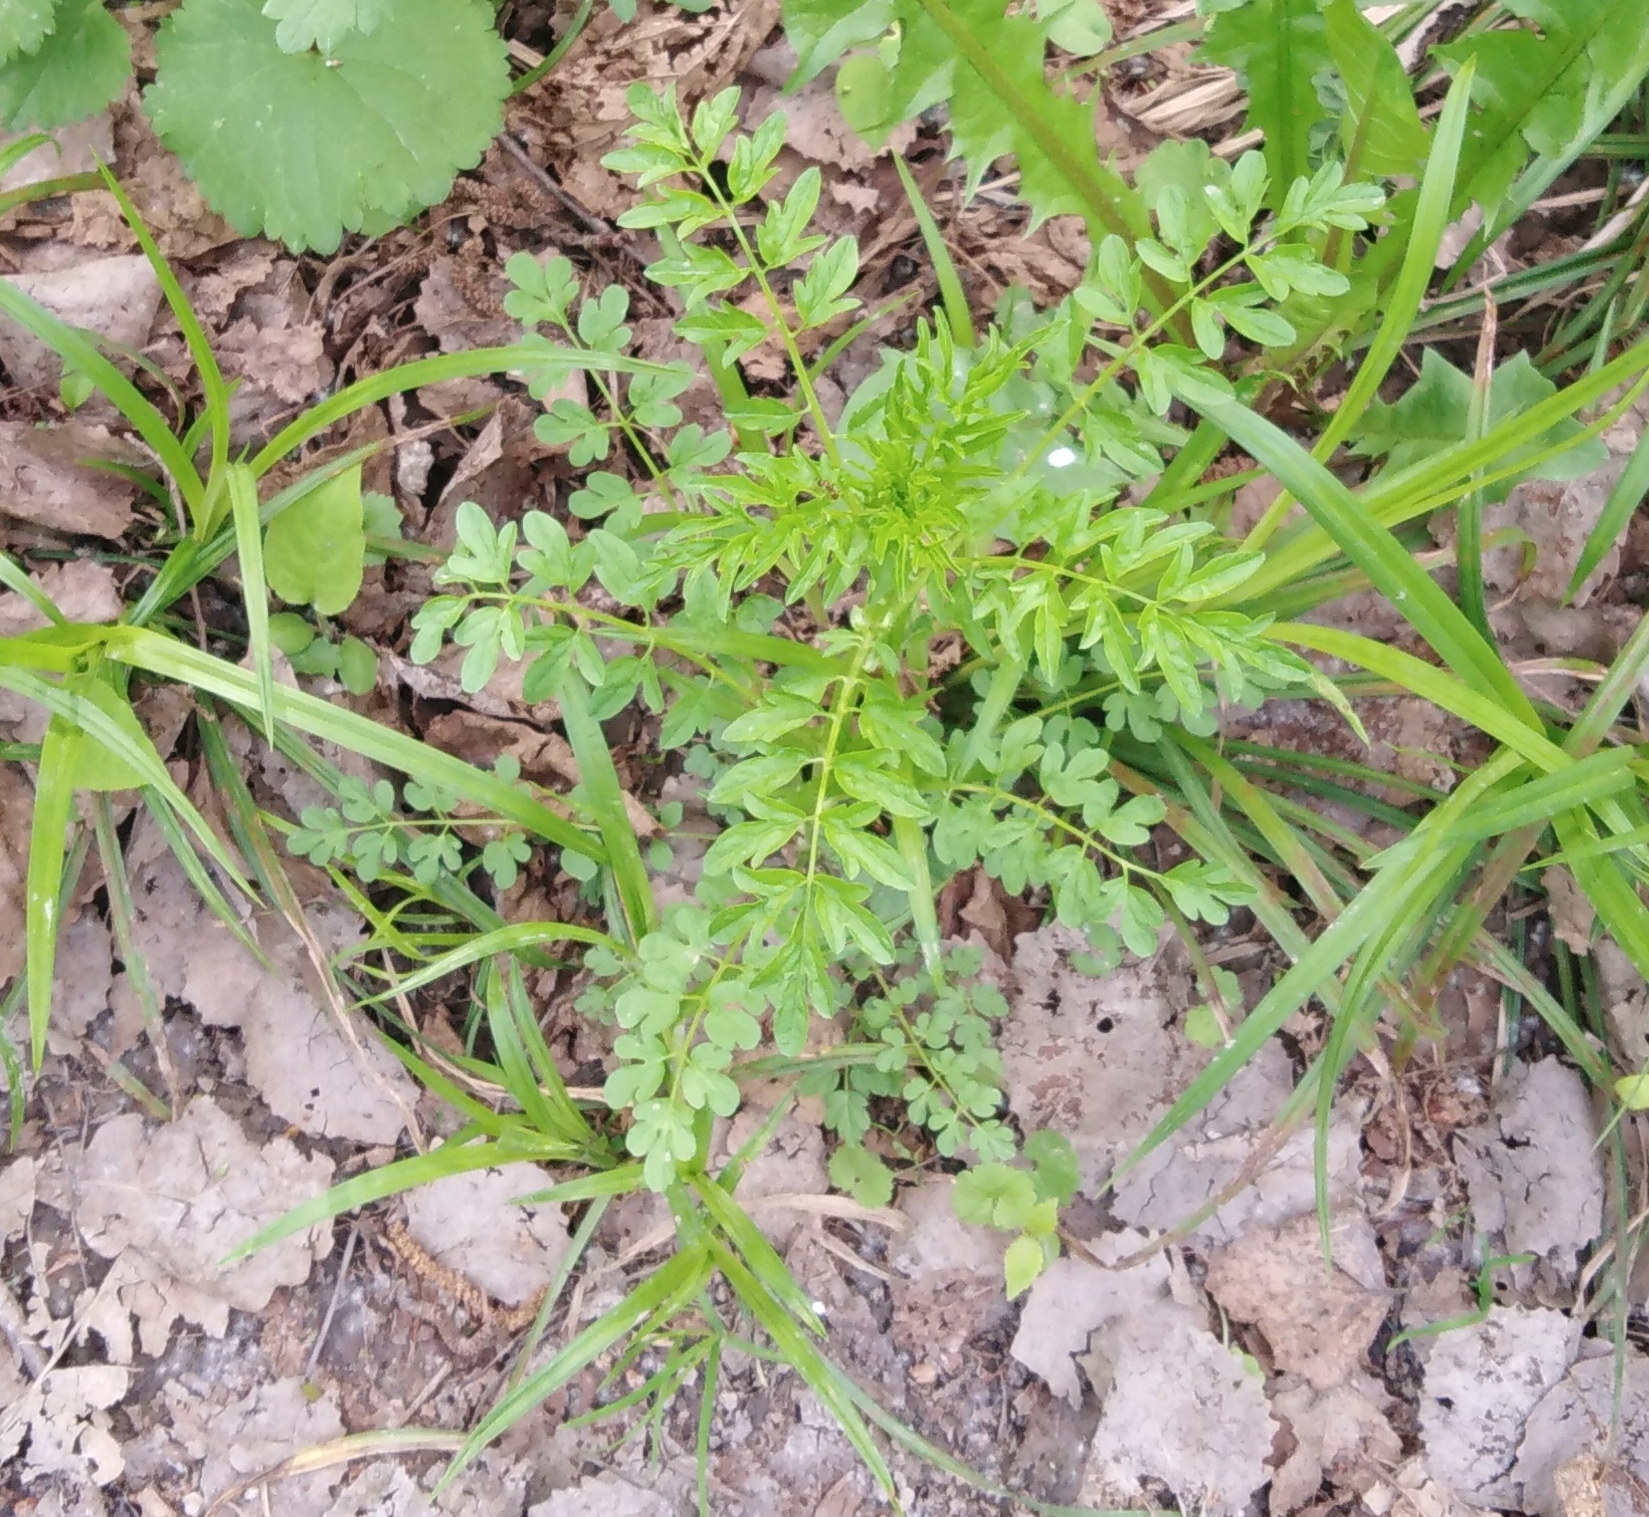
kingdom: Plantae
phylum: Tracheophyta
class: Magnoliopsida
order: Brassicales
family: Brassicaceae
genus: Cardamine
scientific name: Cardamine impatiens
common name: Narrow-leaved bitter-cress
